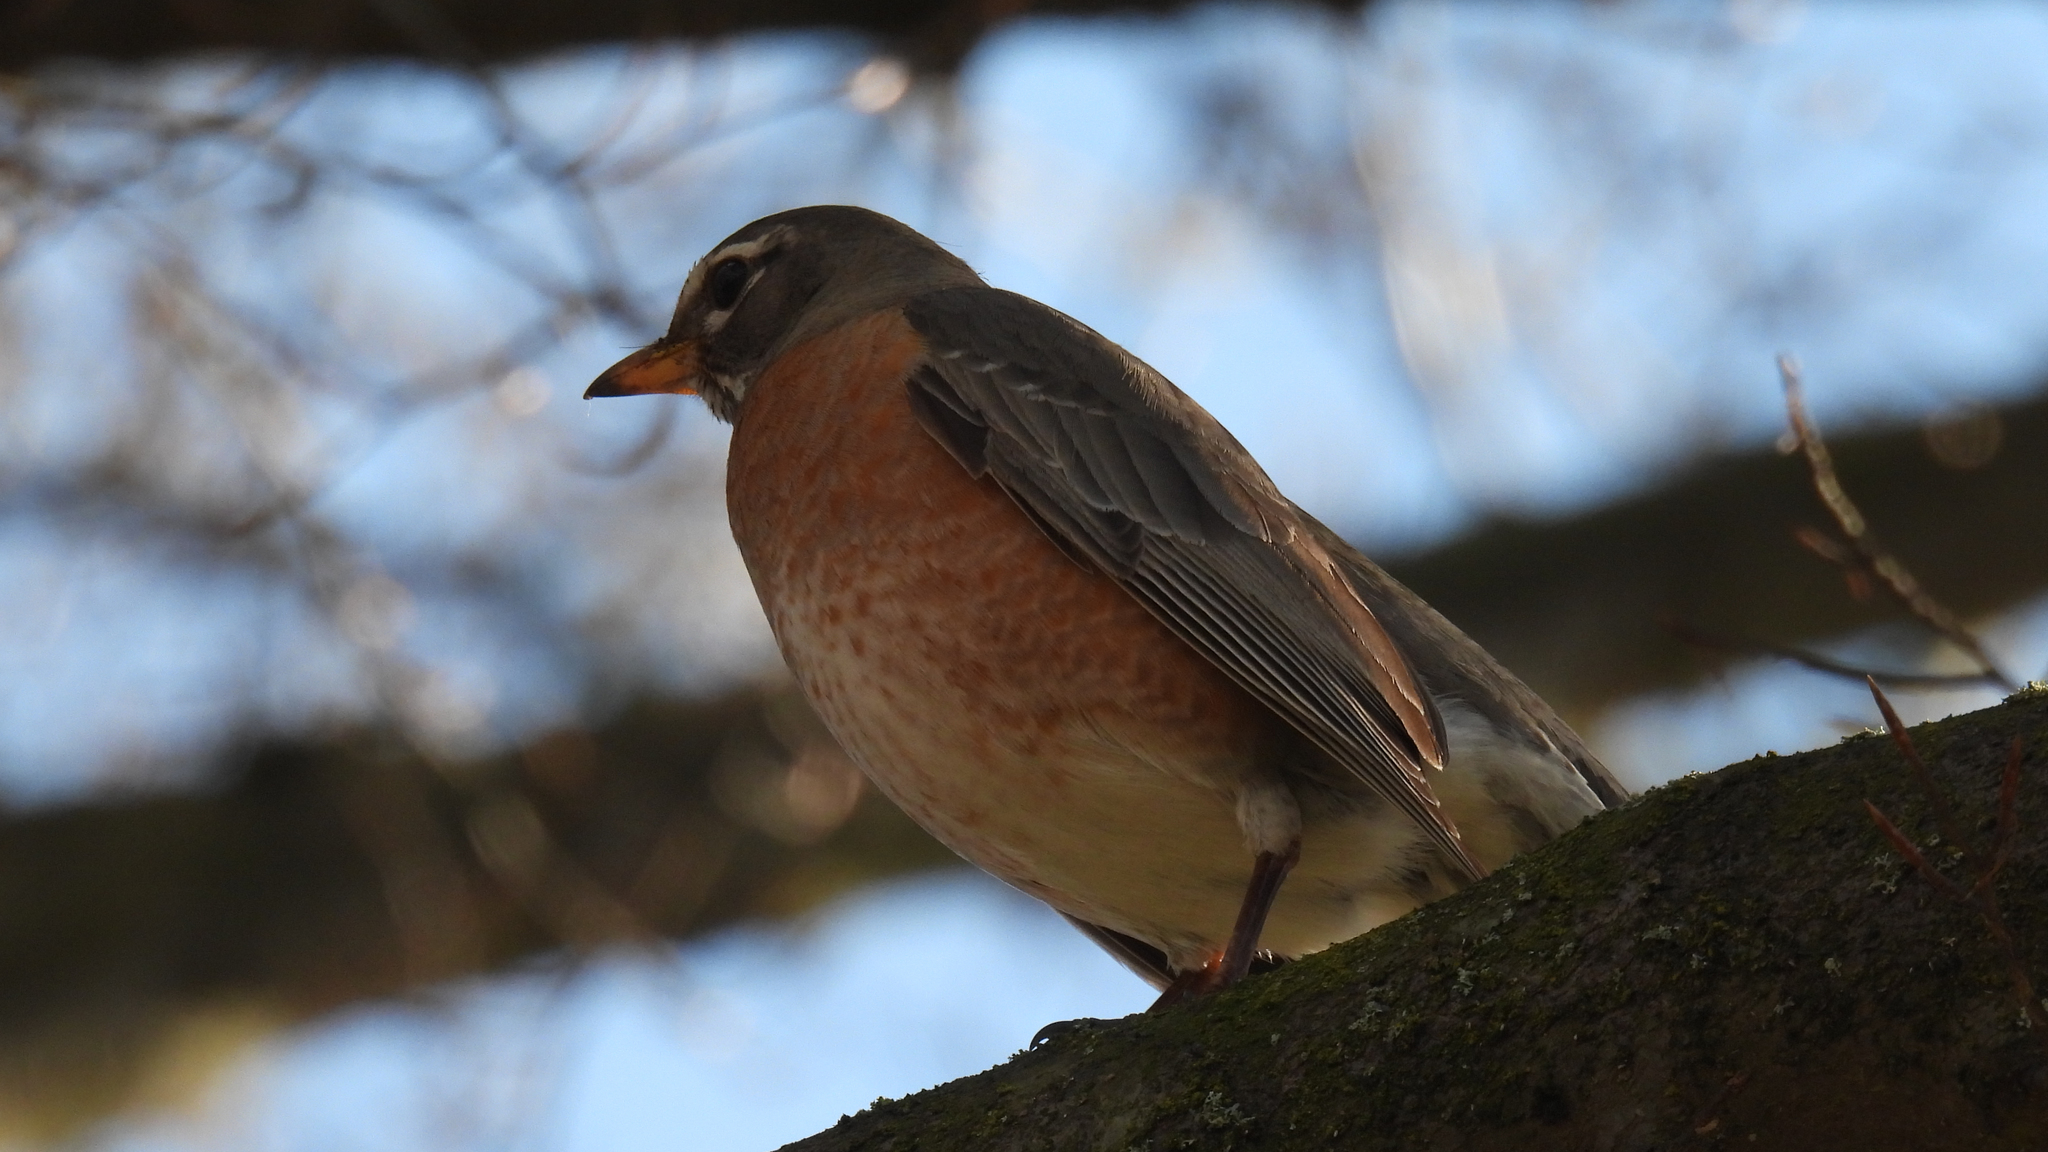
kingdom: Animalia
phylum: Chordata
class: Aves
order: Passeriformes
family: Turdidae
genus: Turdus
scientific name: Turdus migratorius
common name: American robin
